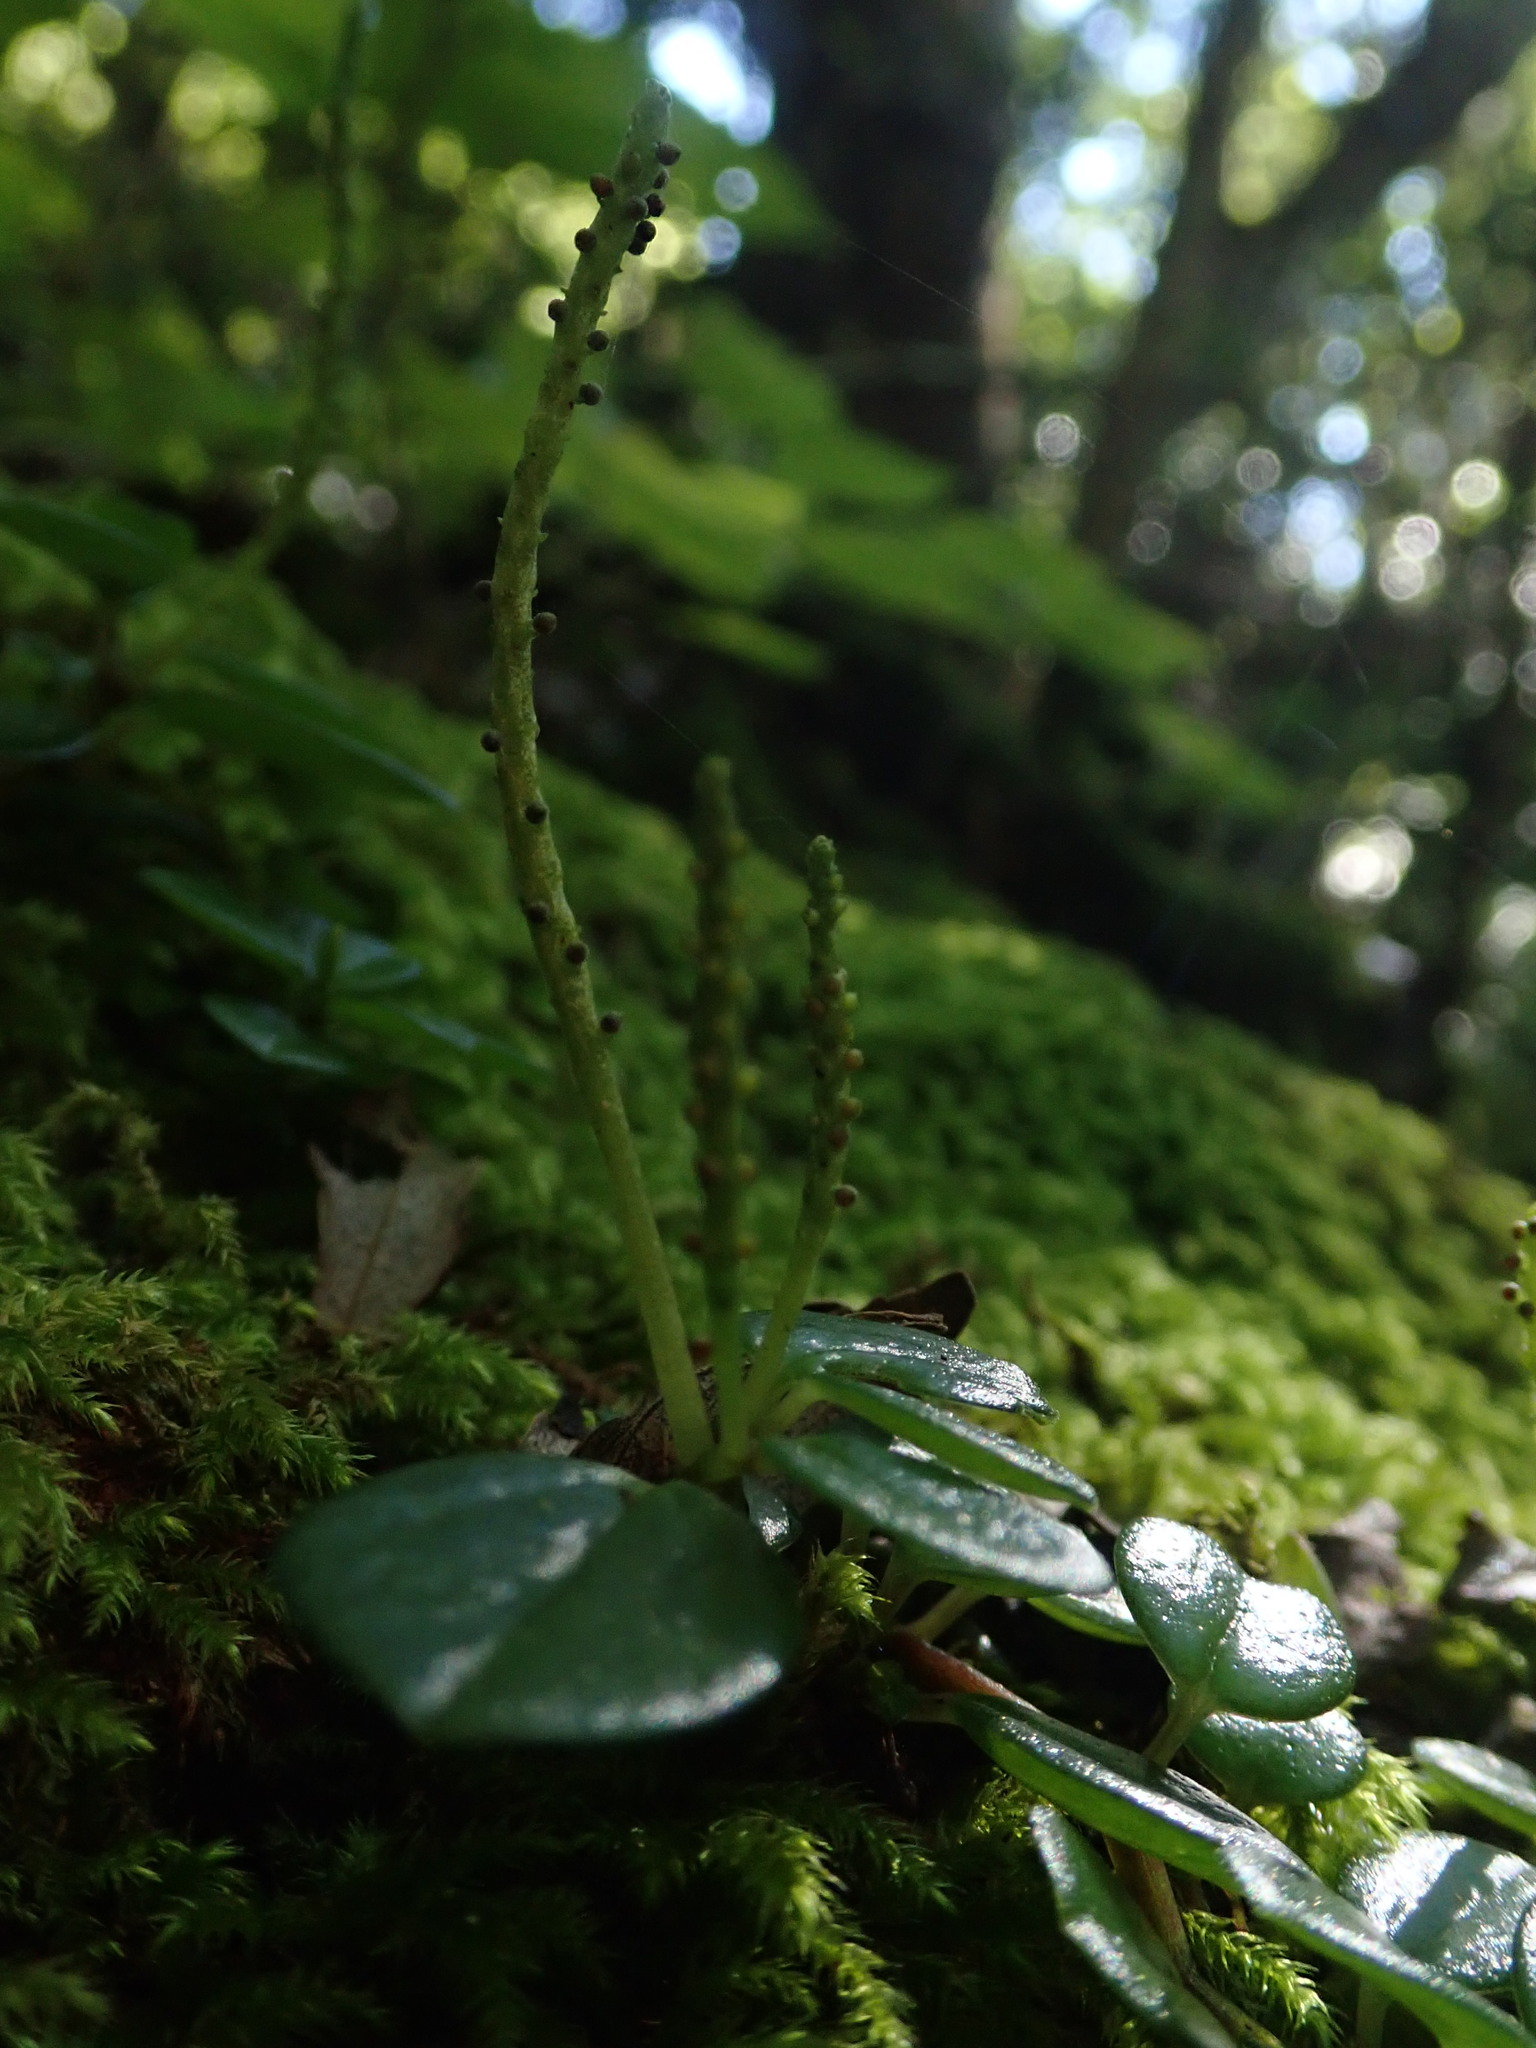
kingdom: Plantae
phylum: Tracheophyta
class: Magnoliopsida
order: Piperales
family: Piperaceae
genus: Peperomia
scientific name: Peperomia retusa
